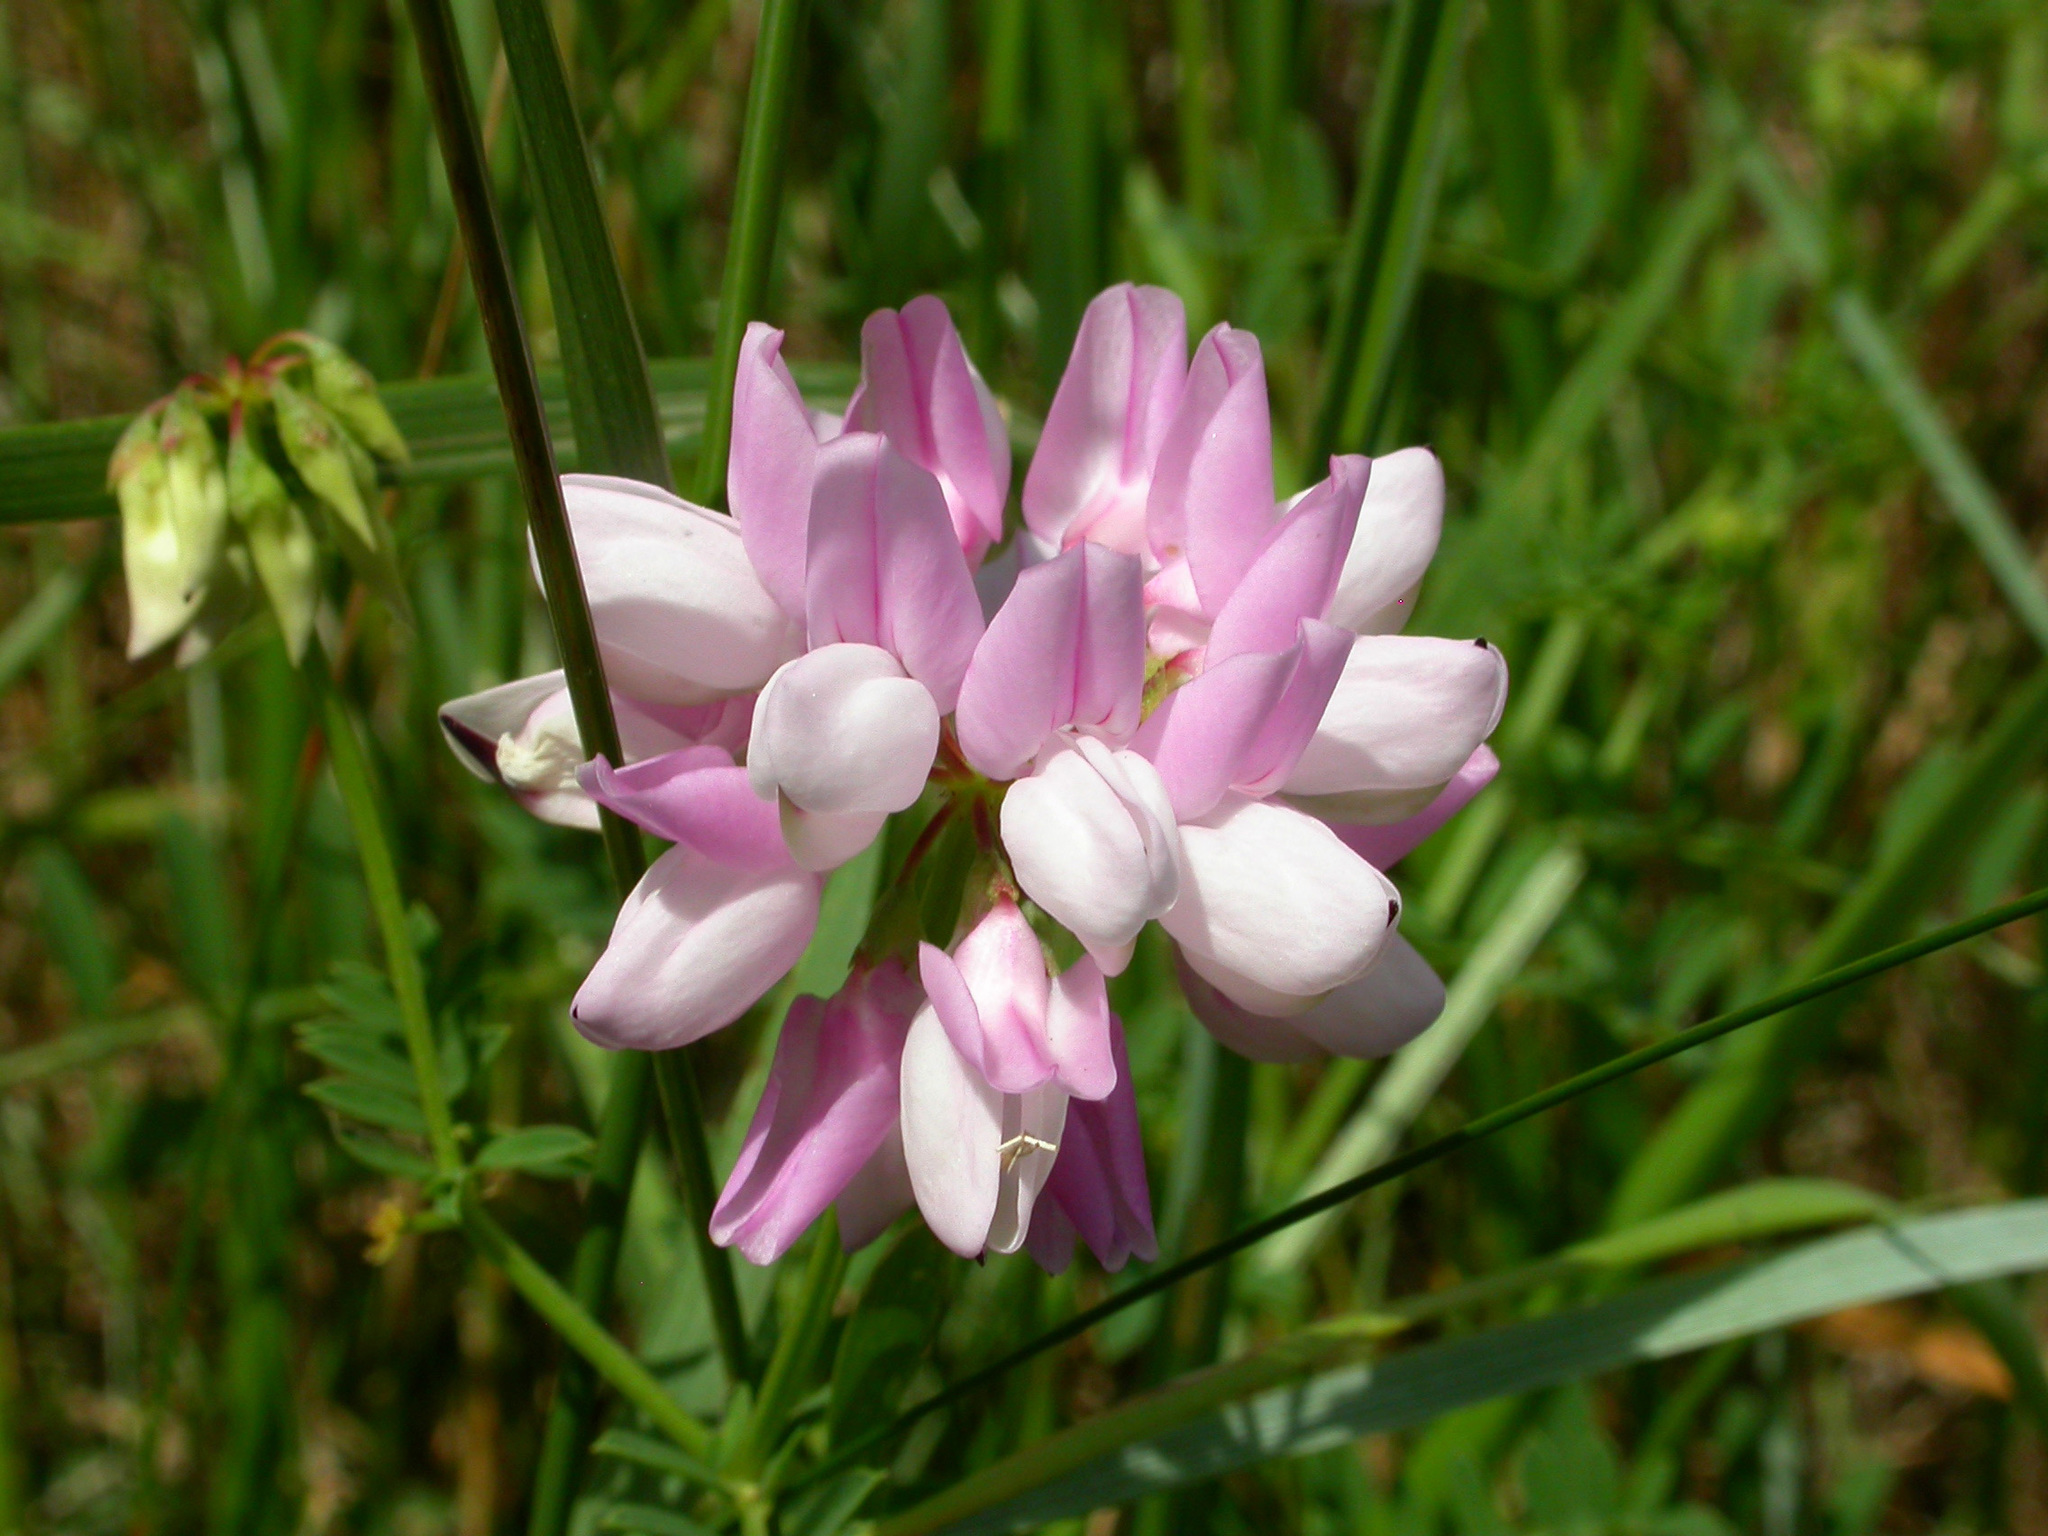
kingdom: Plantae
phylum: Tracheophyta
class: Magnoliopsida
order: Fabales
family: Fabaceae
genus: Coronilla
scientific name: Coronilla varia
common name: Crownvetch
